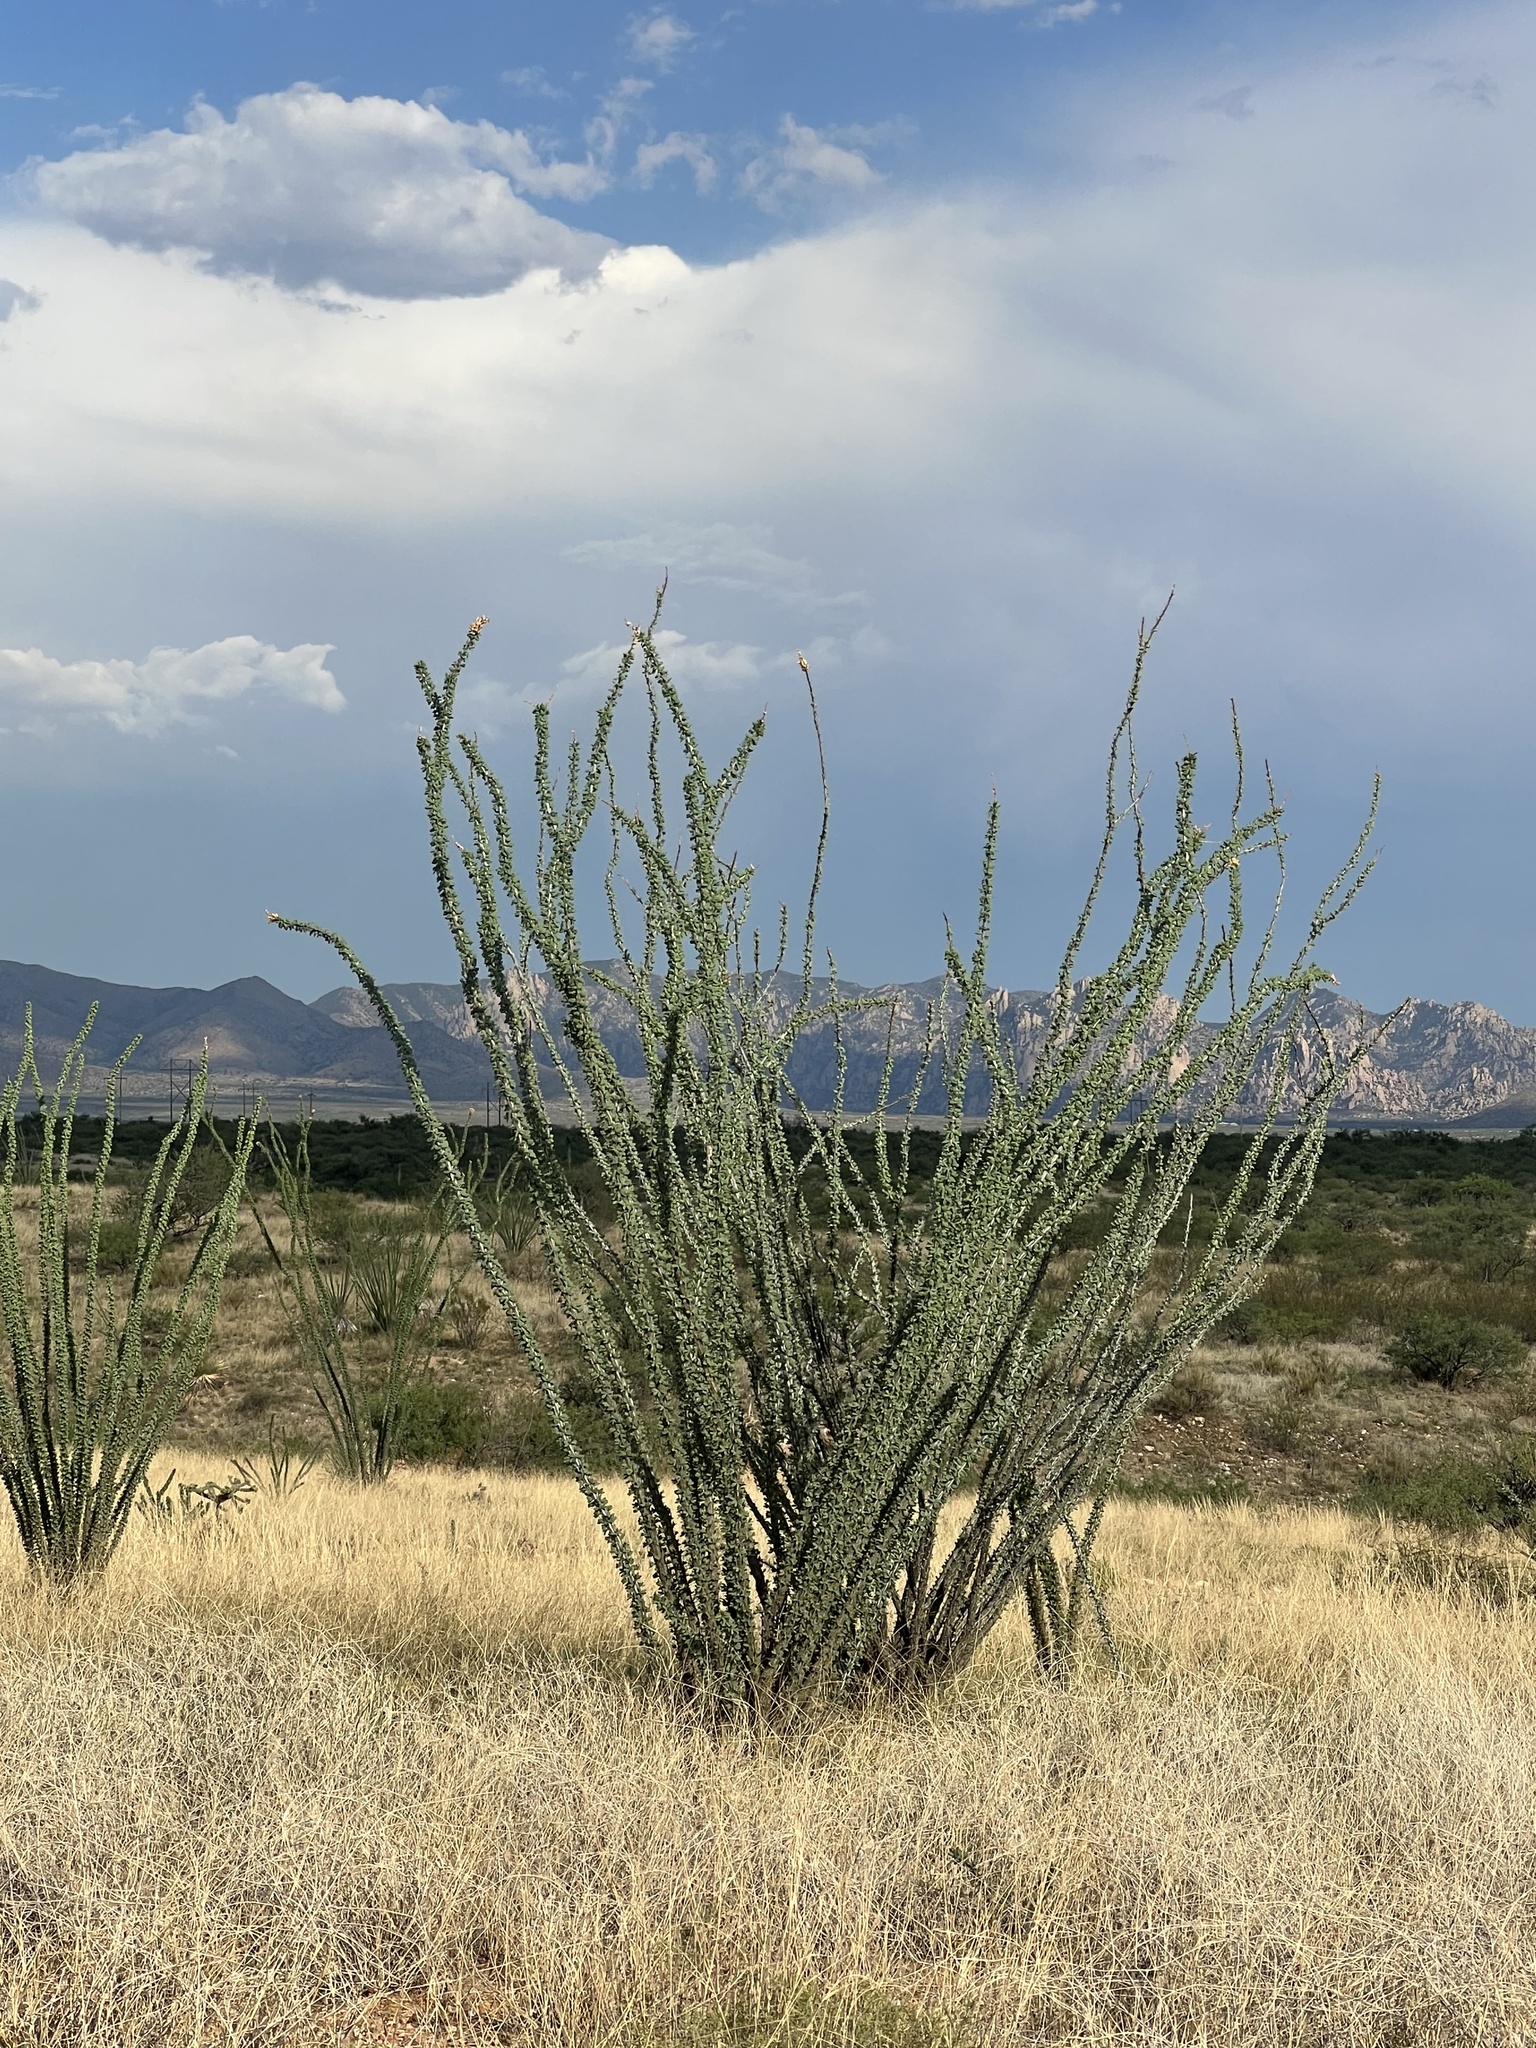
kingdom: Plantae
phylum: Tracheophyta
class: Magnoliopsida
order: Ericales
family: Fouquieriaceae
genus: Fouquieria
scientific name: Fouquieria splendens
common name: Vine-cactus
